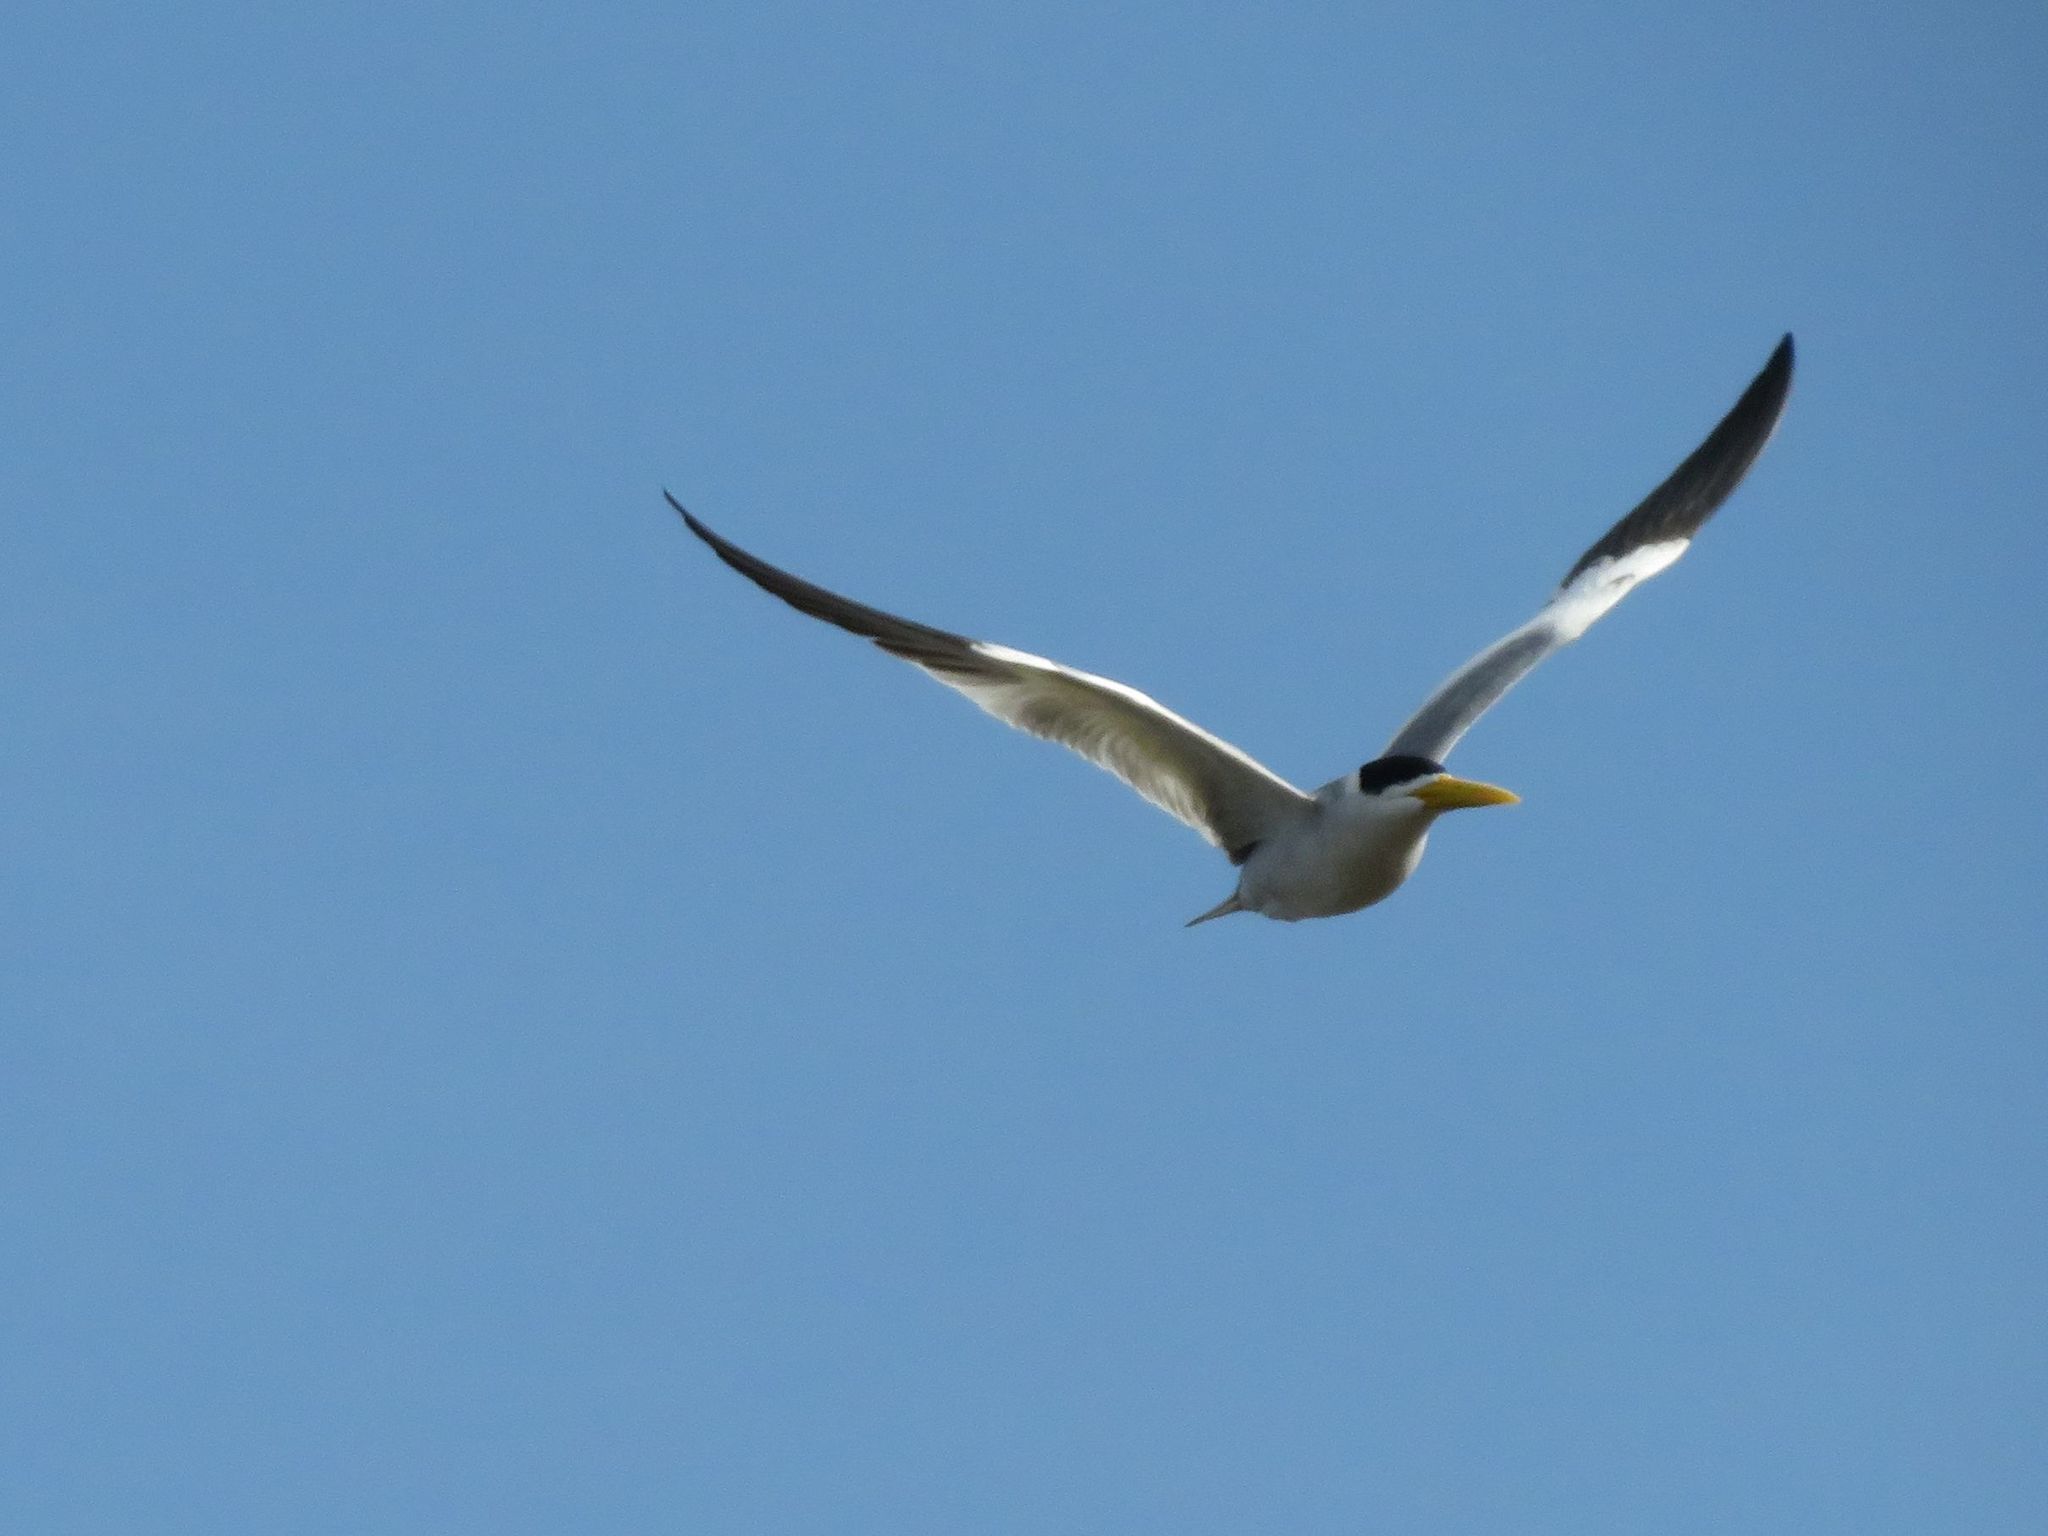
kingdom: Animalia
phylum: Chordata
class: Aves
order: Charadriiformes
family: Laridae
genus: Phaetusa
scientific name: Phaetusa simplex
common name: Large-billed tern
